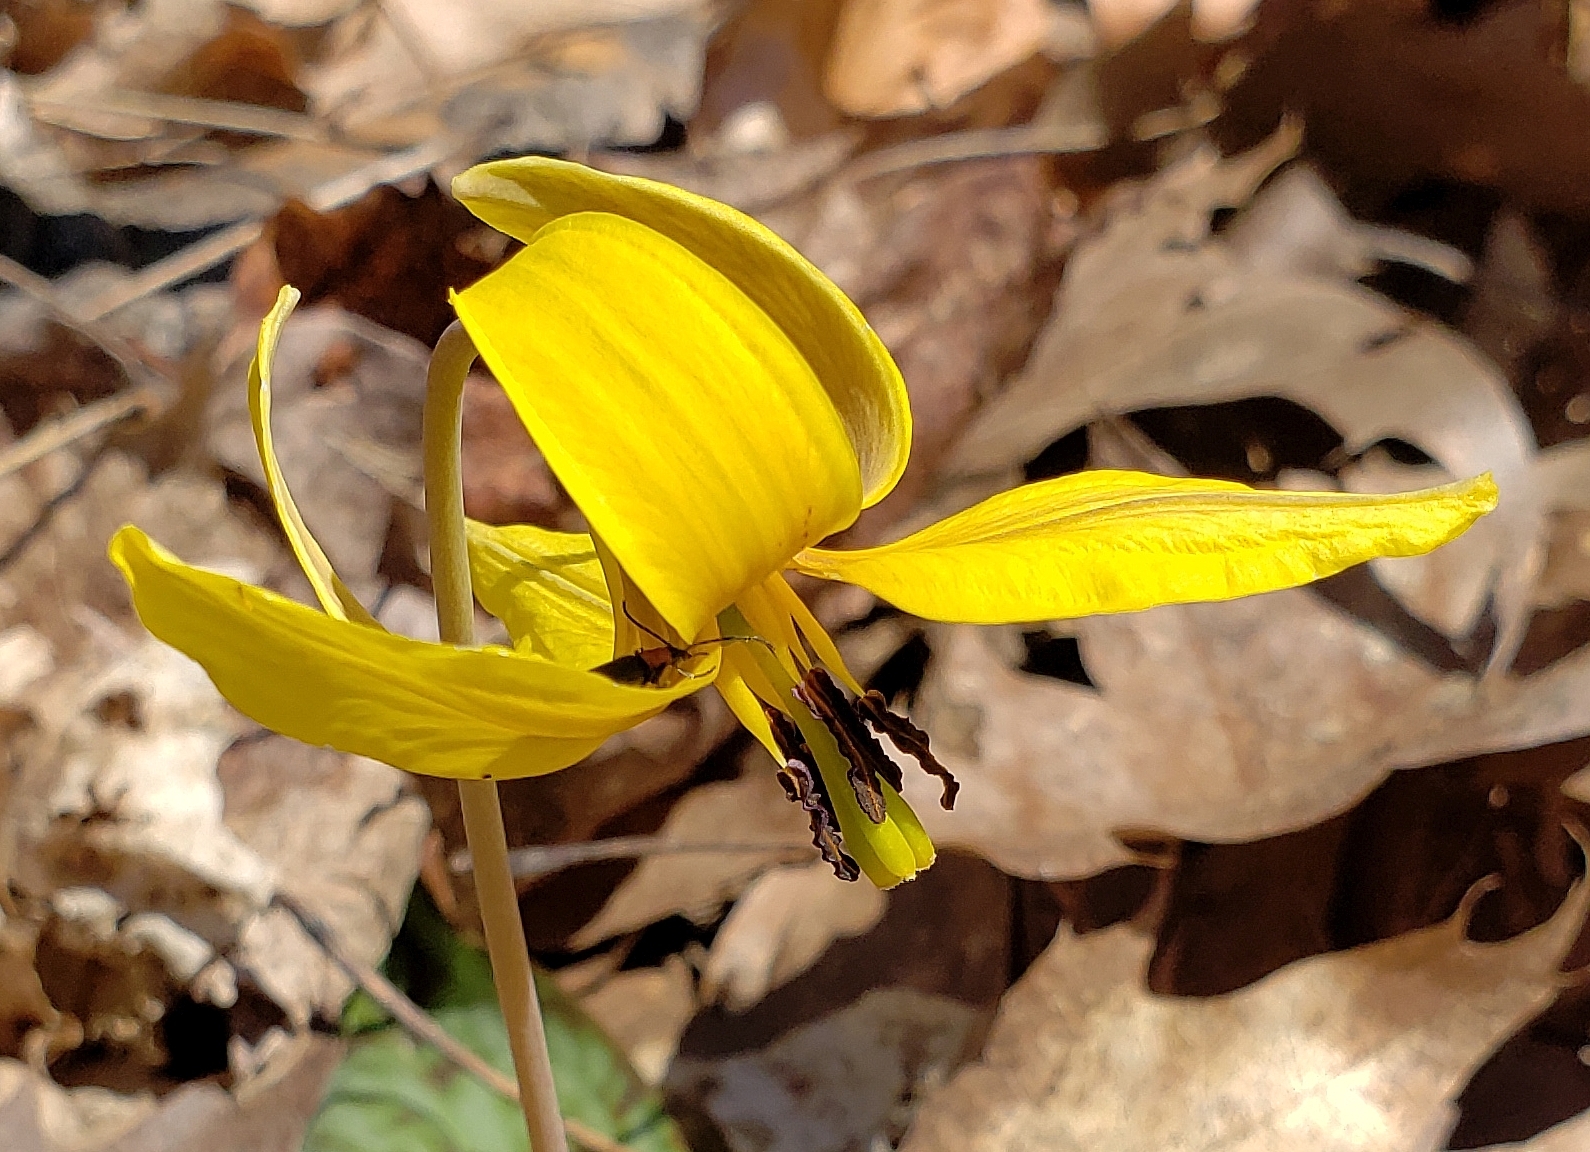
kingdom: Animalia
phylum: Arthropoda
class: Insecta
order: Coleoptera
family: Oedemeridae
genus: Ischnomera
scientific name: Ischnomera
